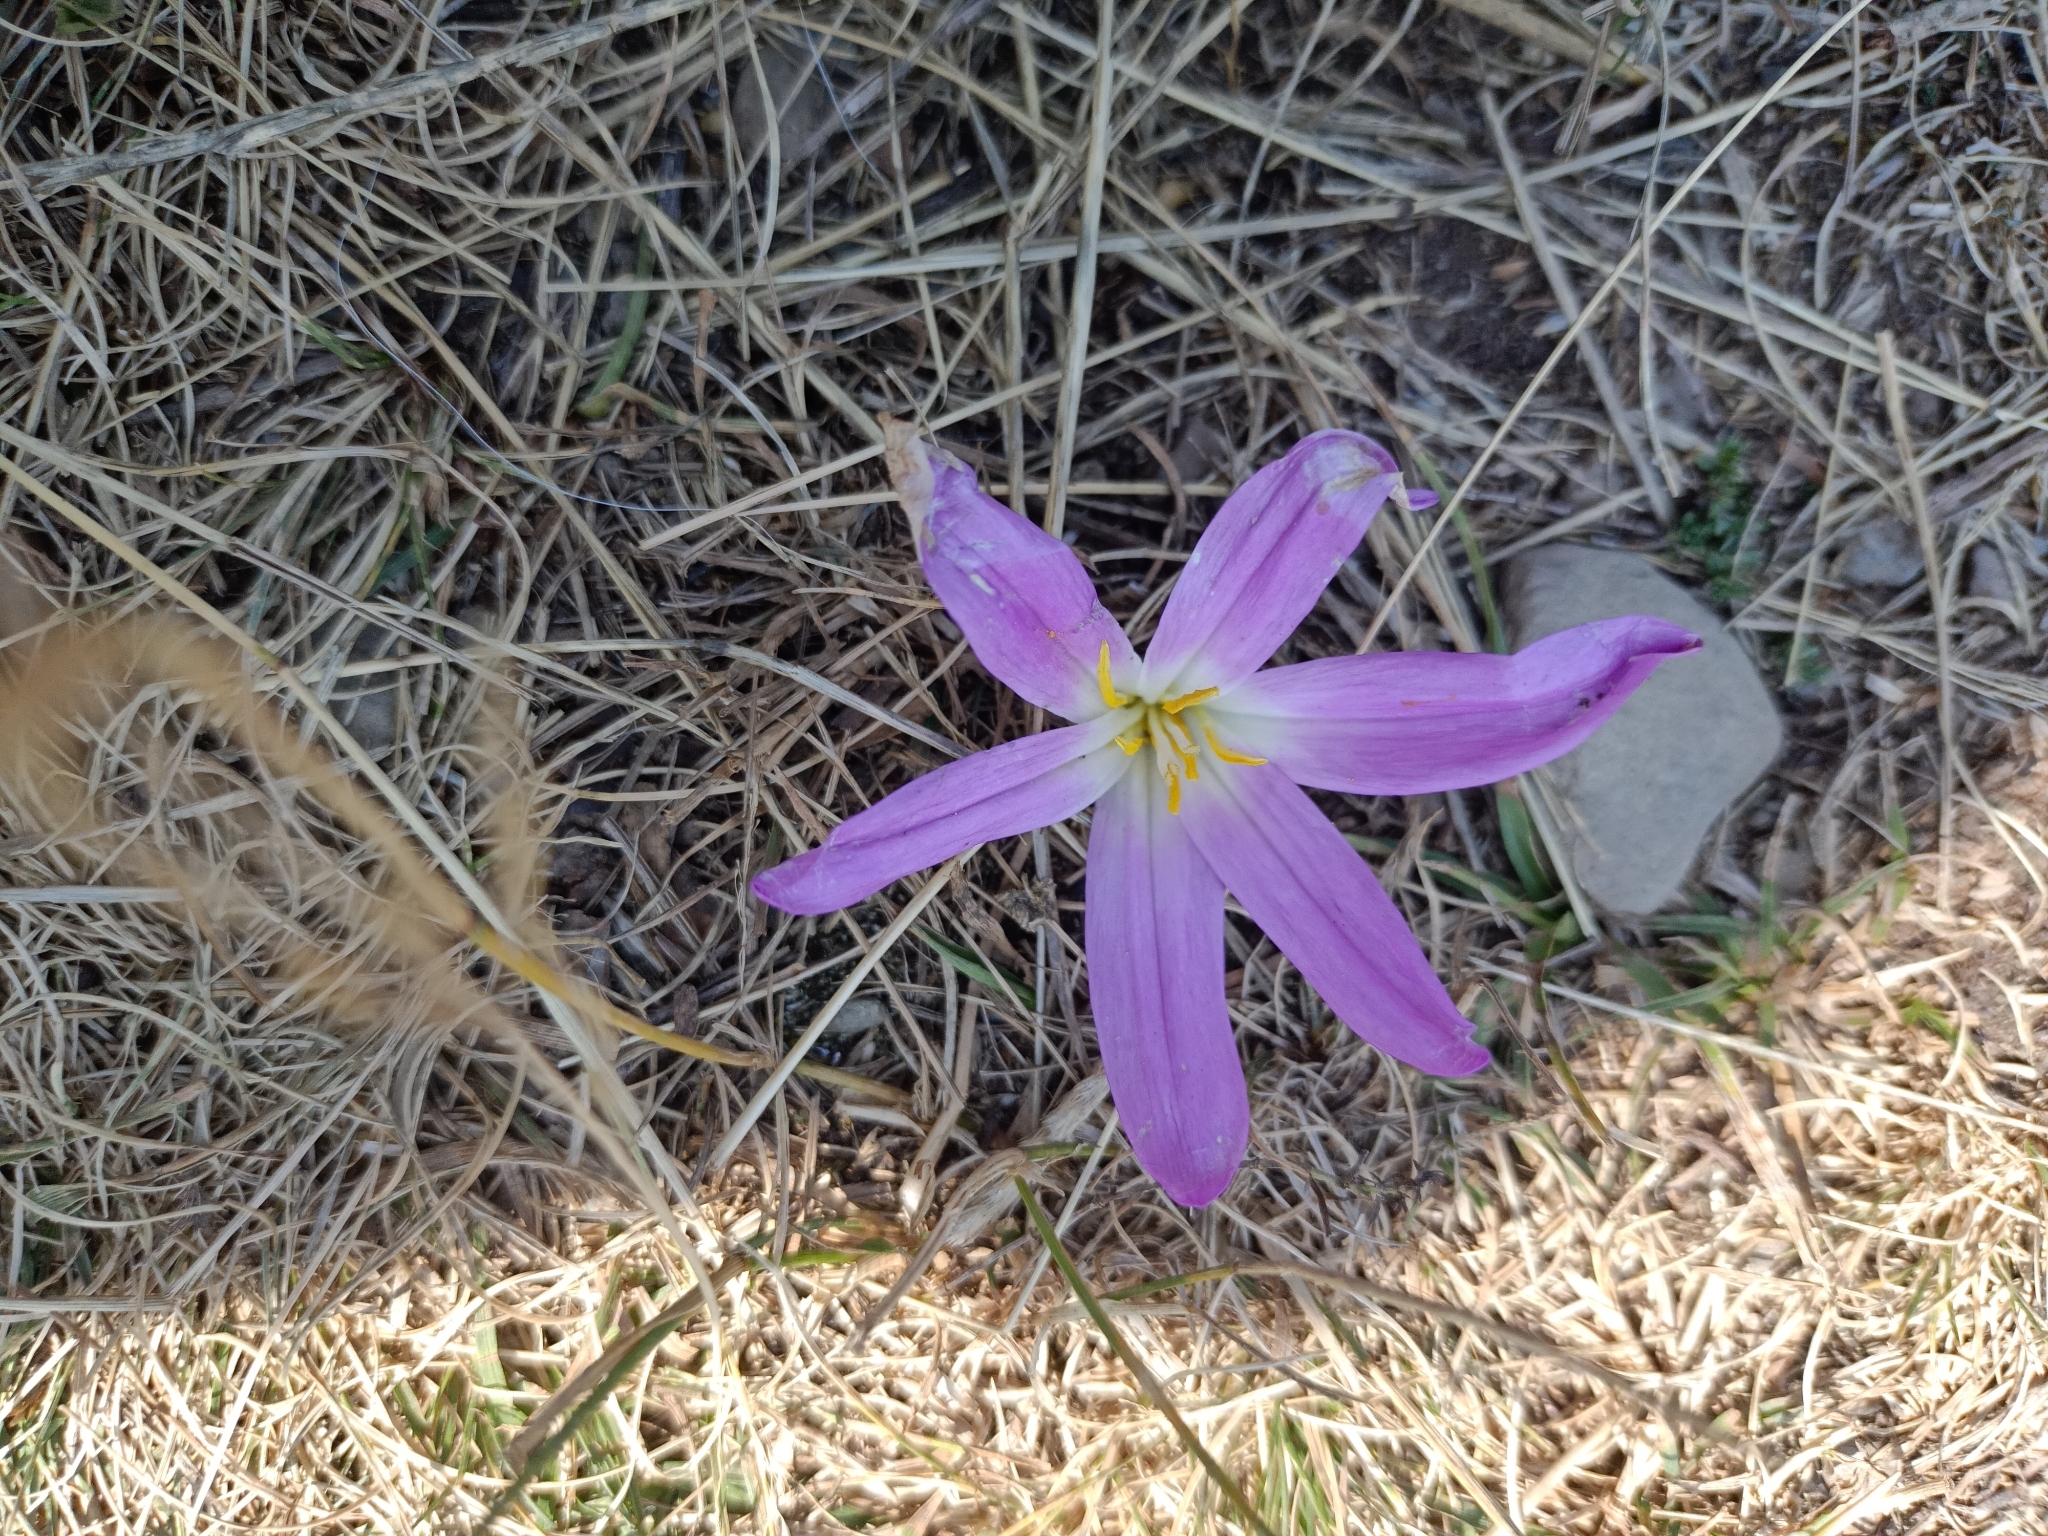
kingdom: Plantae
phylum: Tracheophyta
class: Liliopsida
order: Liliales
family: Colchicaceae
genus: Colchicum
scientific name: Colchicum montanum
